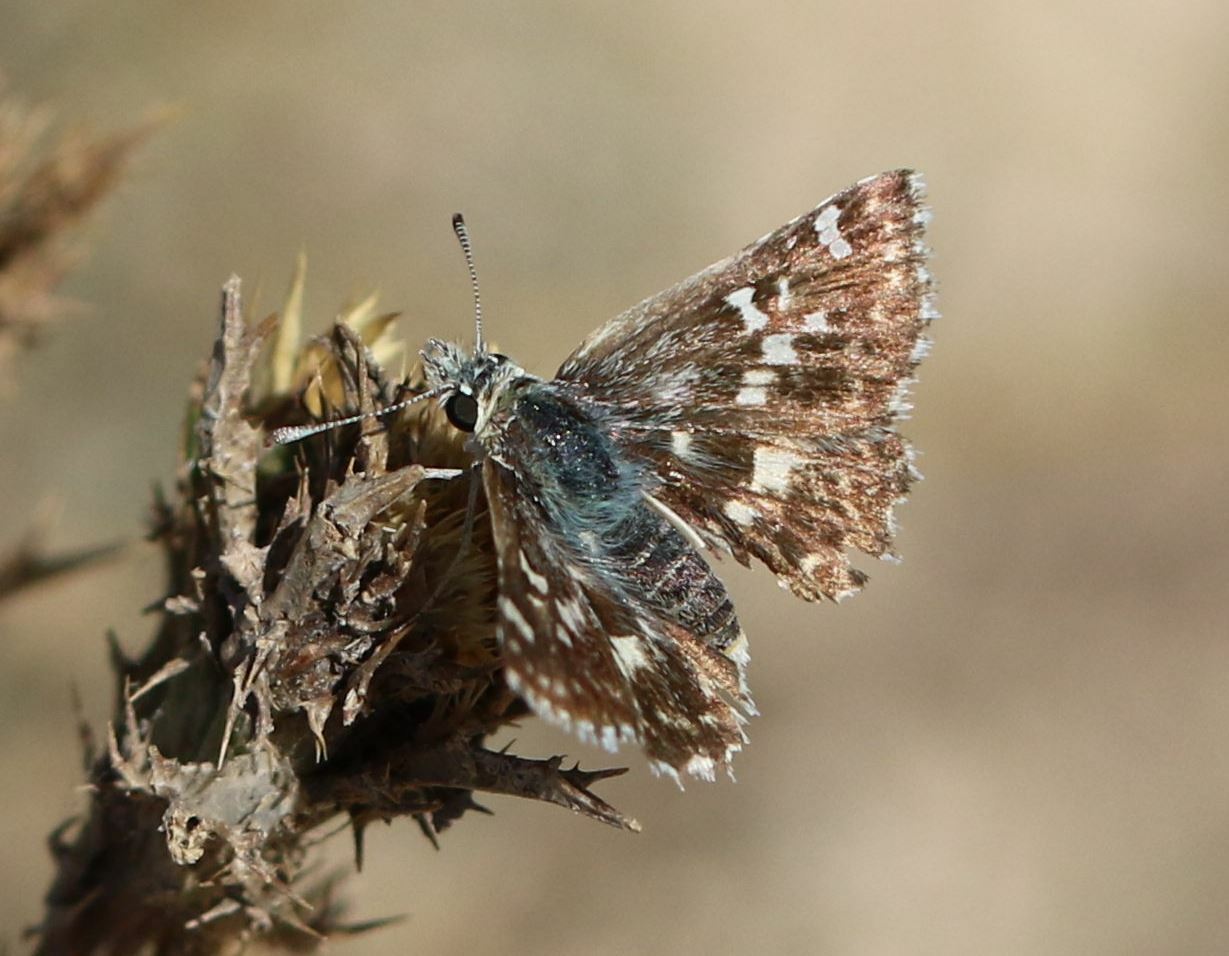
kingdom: Animalia
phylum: Arthropoda
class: Insecta
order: Lepidoptera
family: Hesperiidae
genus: Syrichtus
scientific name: Syrichtus Muschampia proto
